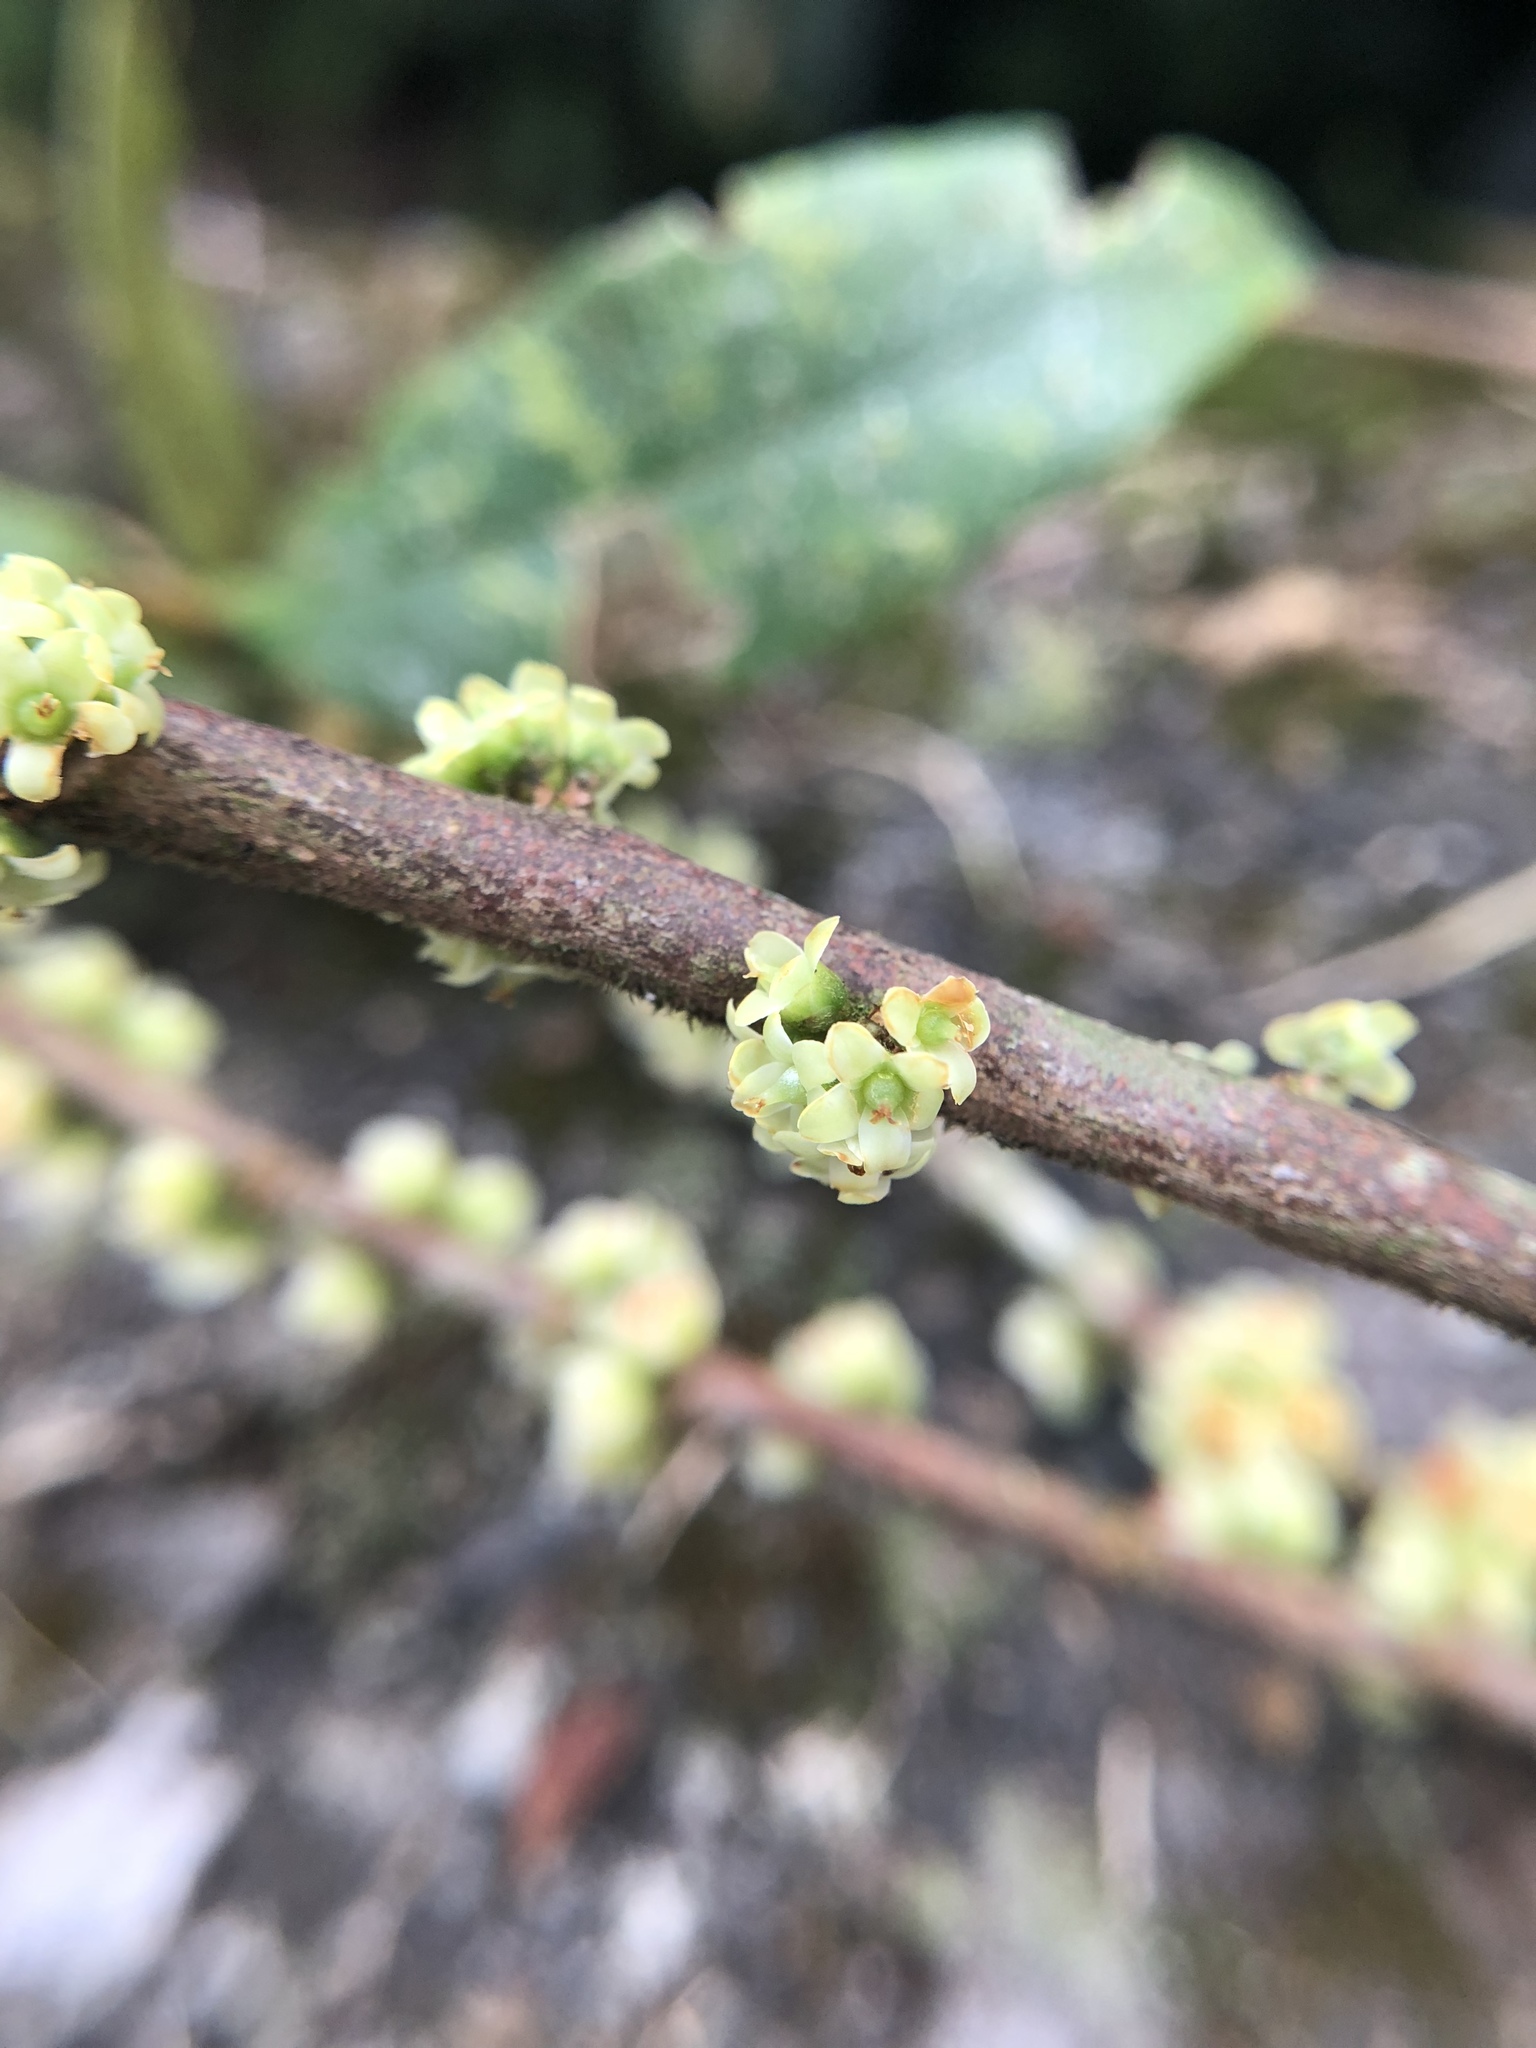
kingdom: Plantae
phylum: Tracheophyta
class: Magnoliopsida
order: Ericales
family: Pentaphylacaceae
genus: Eurya
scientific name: Eurya strigillosa
